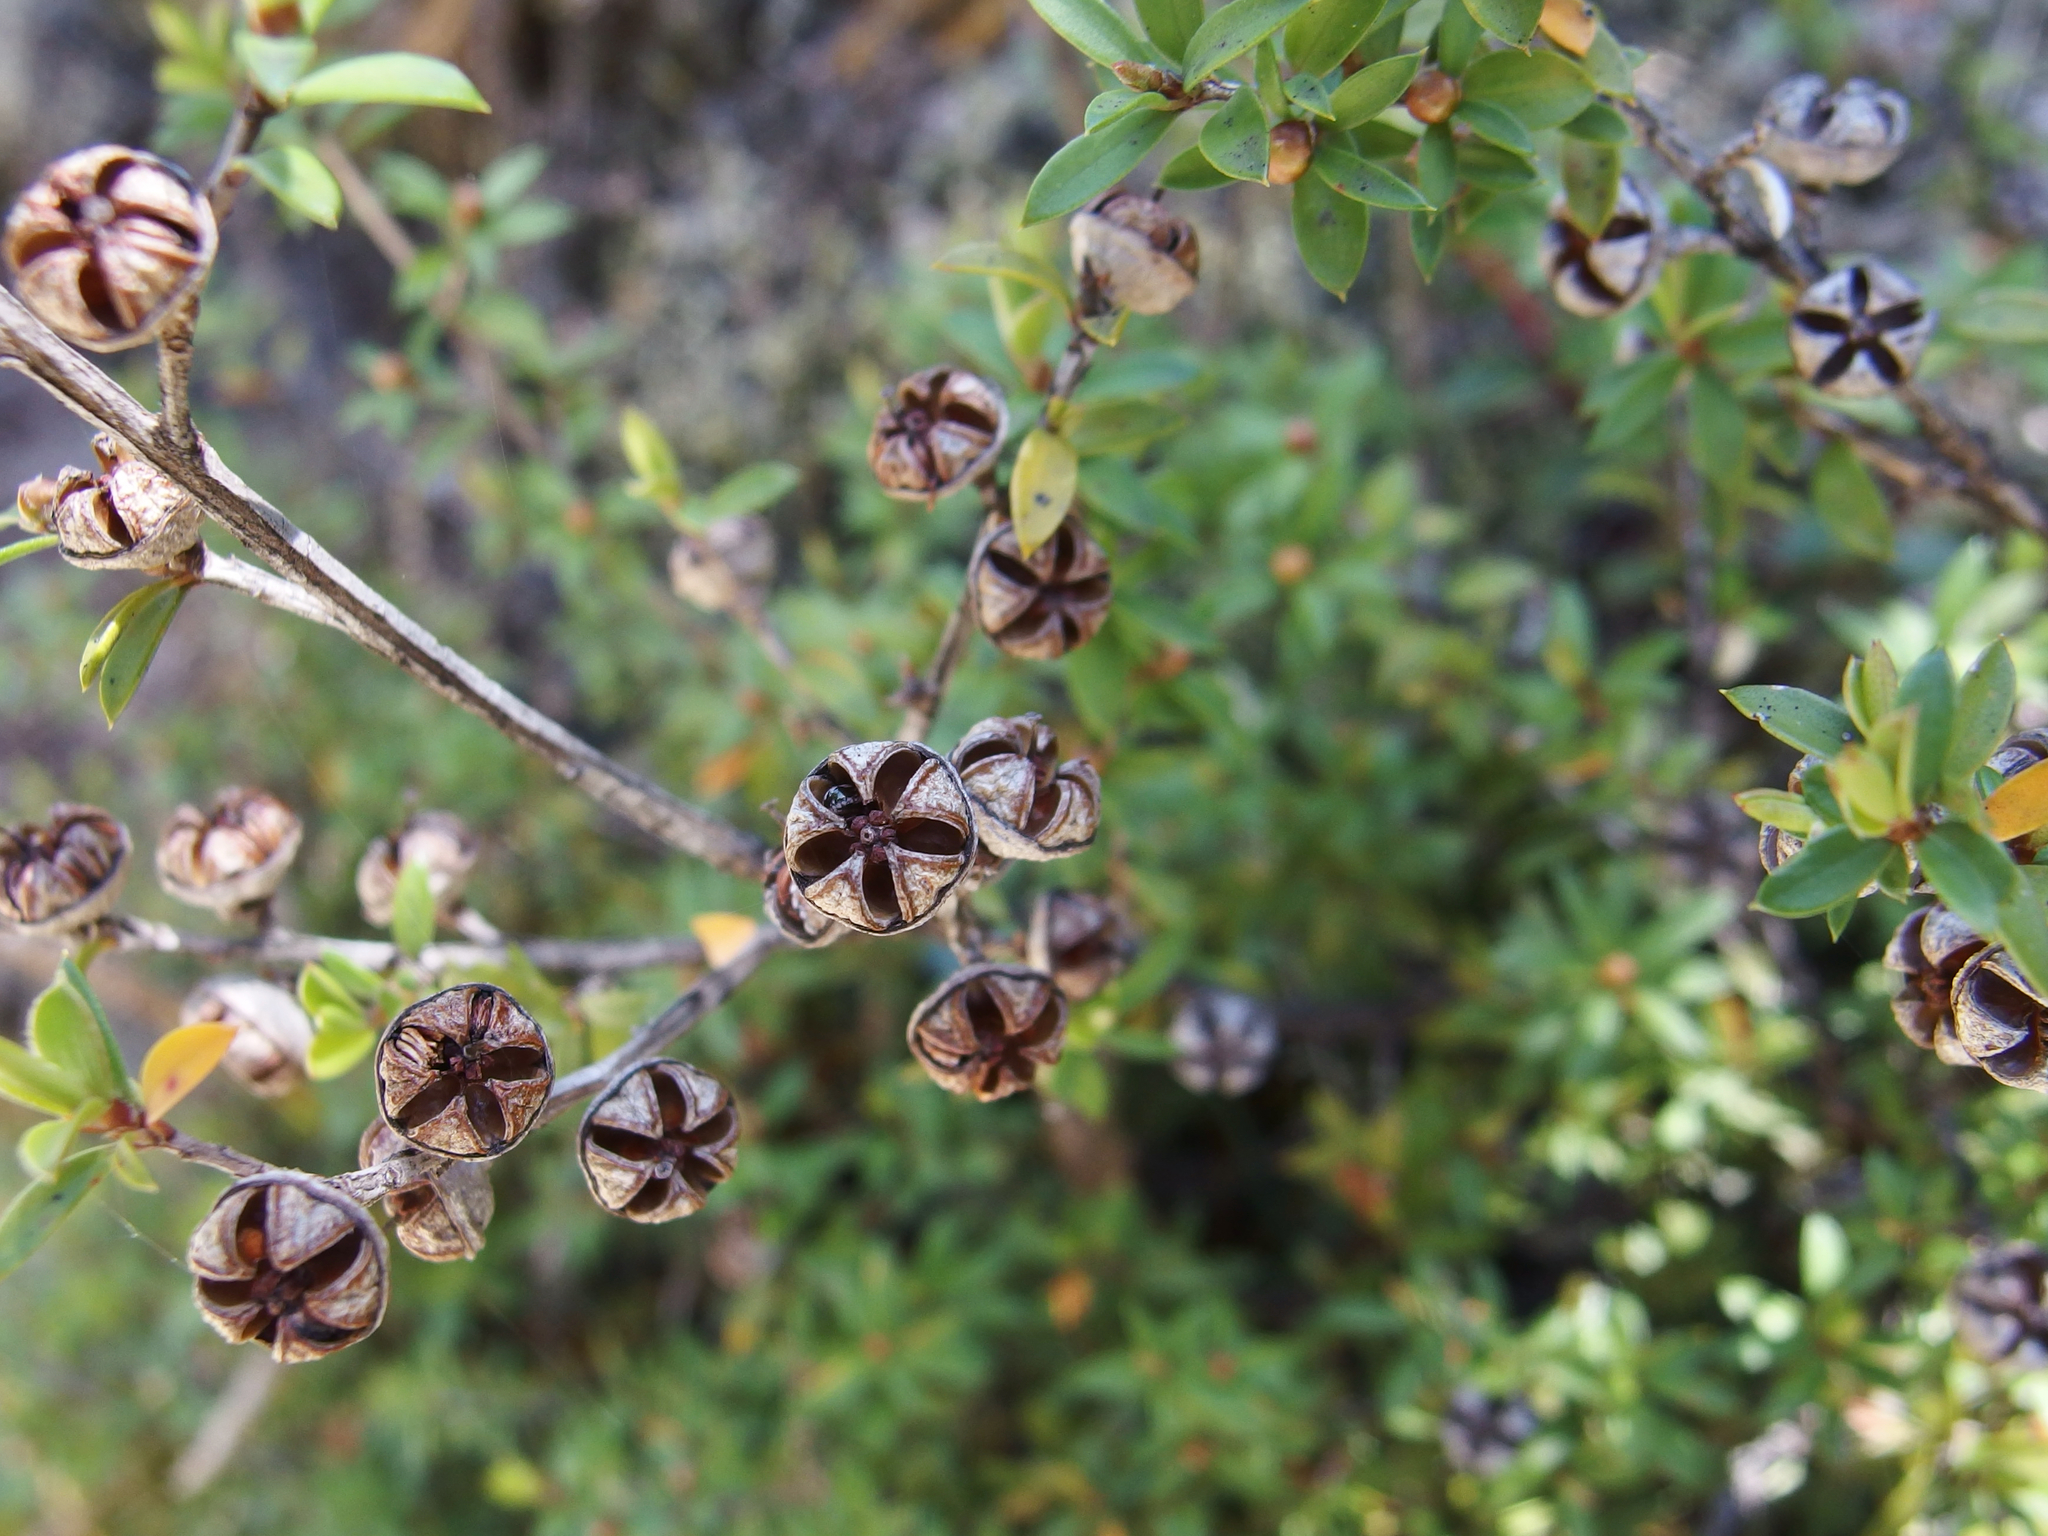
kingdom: Plantae
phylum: Tracheophyta
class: Magnoliopsida
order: Myrtales
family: Myrtaceae
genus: Leptospermum
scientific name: Leptospermum scoparium
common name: Broom tea-tree
